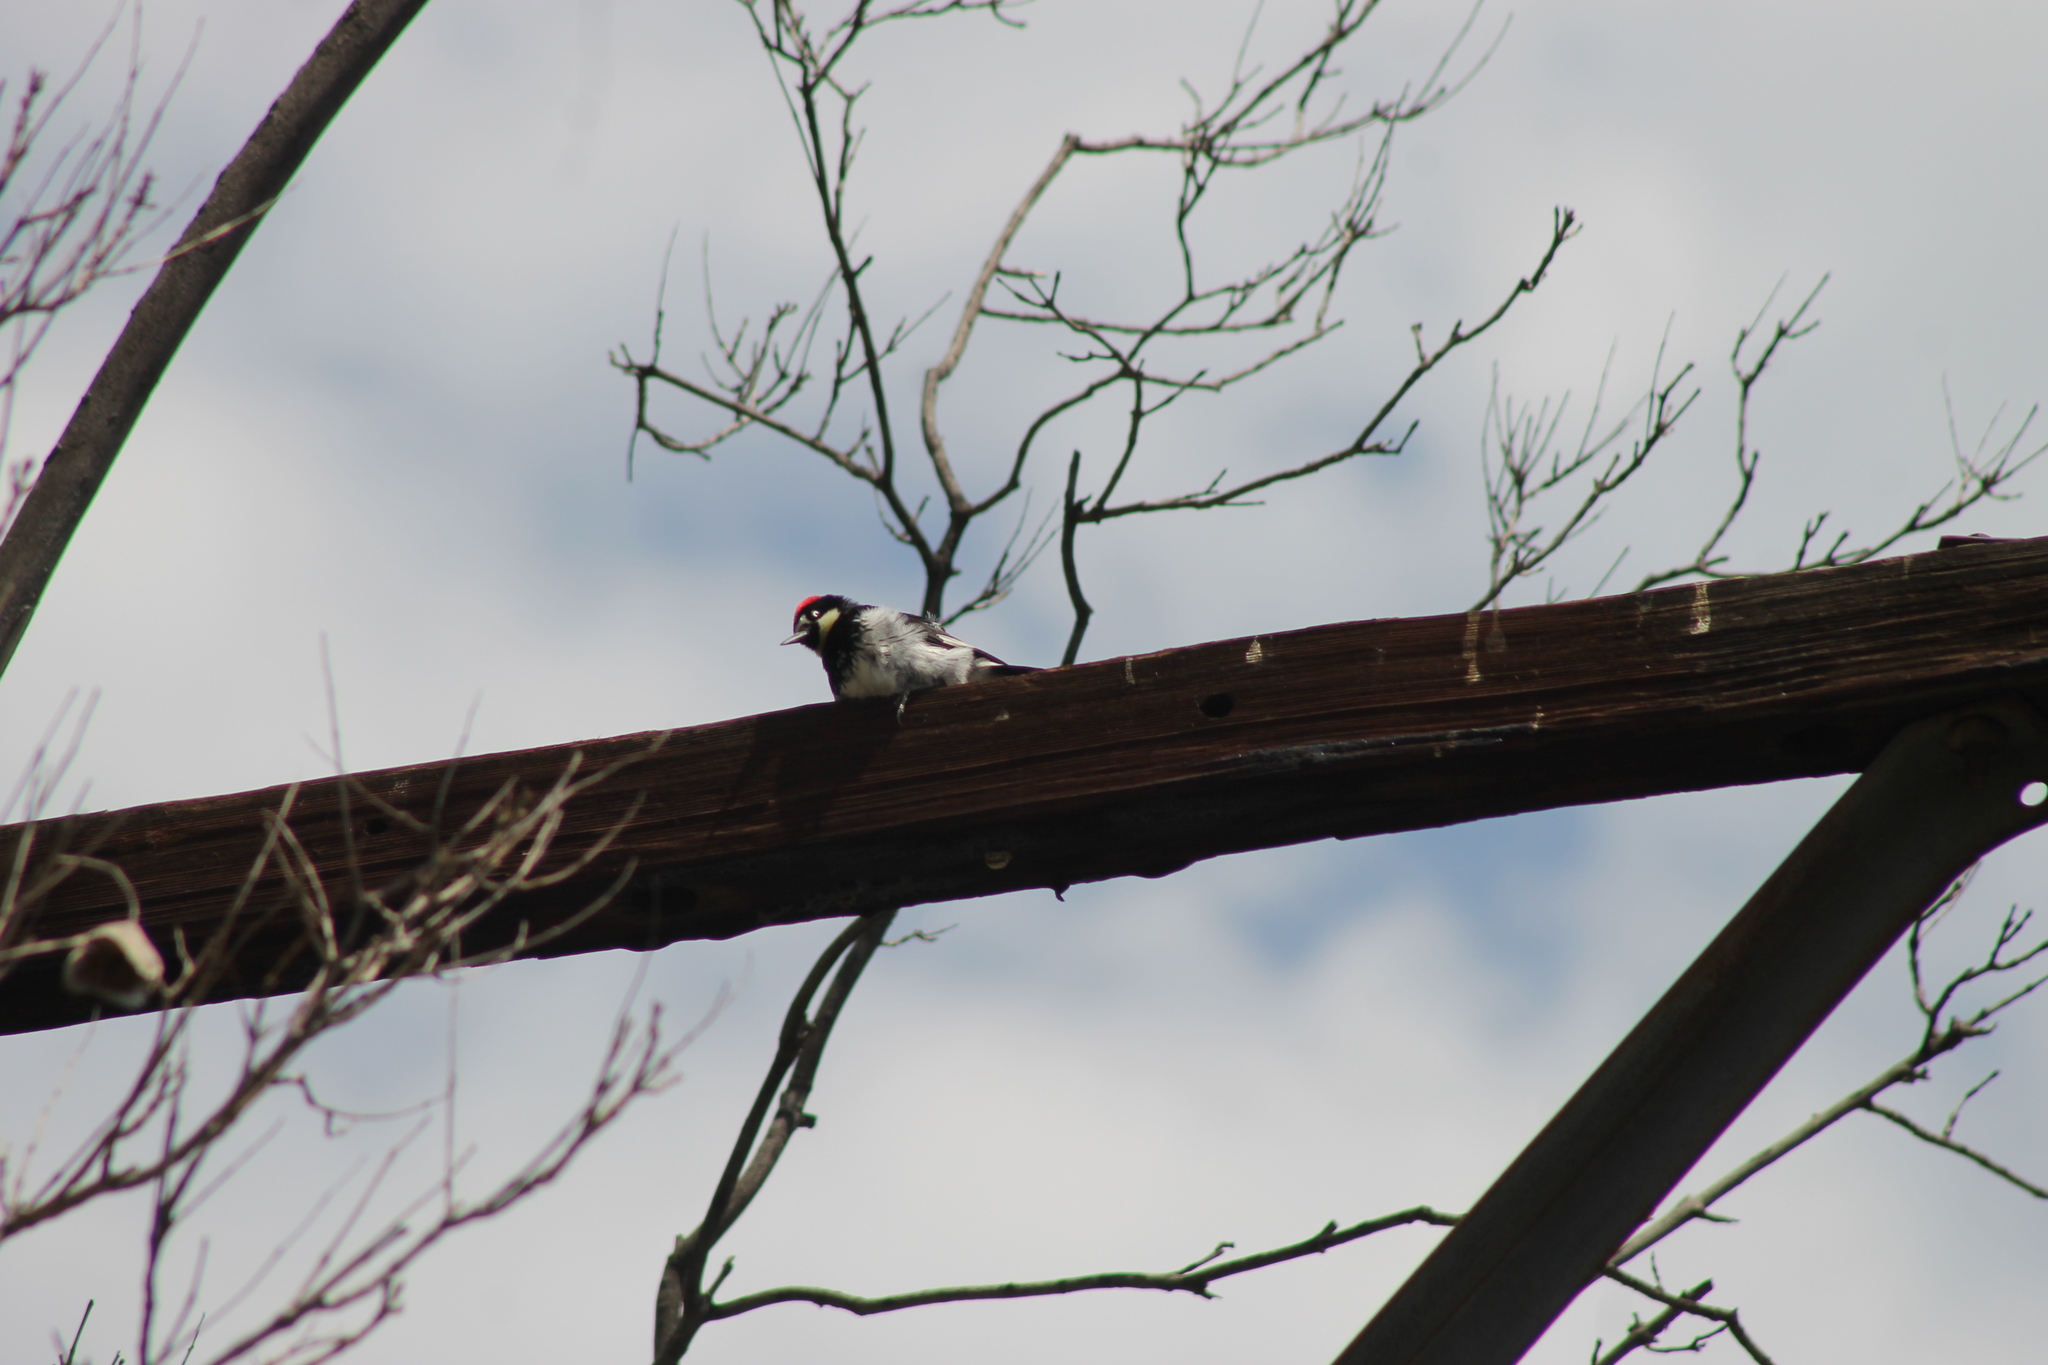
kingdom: Animalia
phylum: Chordata
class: Aves
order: Piciformes
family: Picidae
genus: Melanerpes
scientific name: Melanerpes formicivorus
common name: Acorn woodpecker
